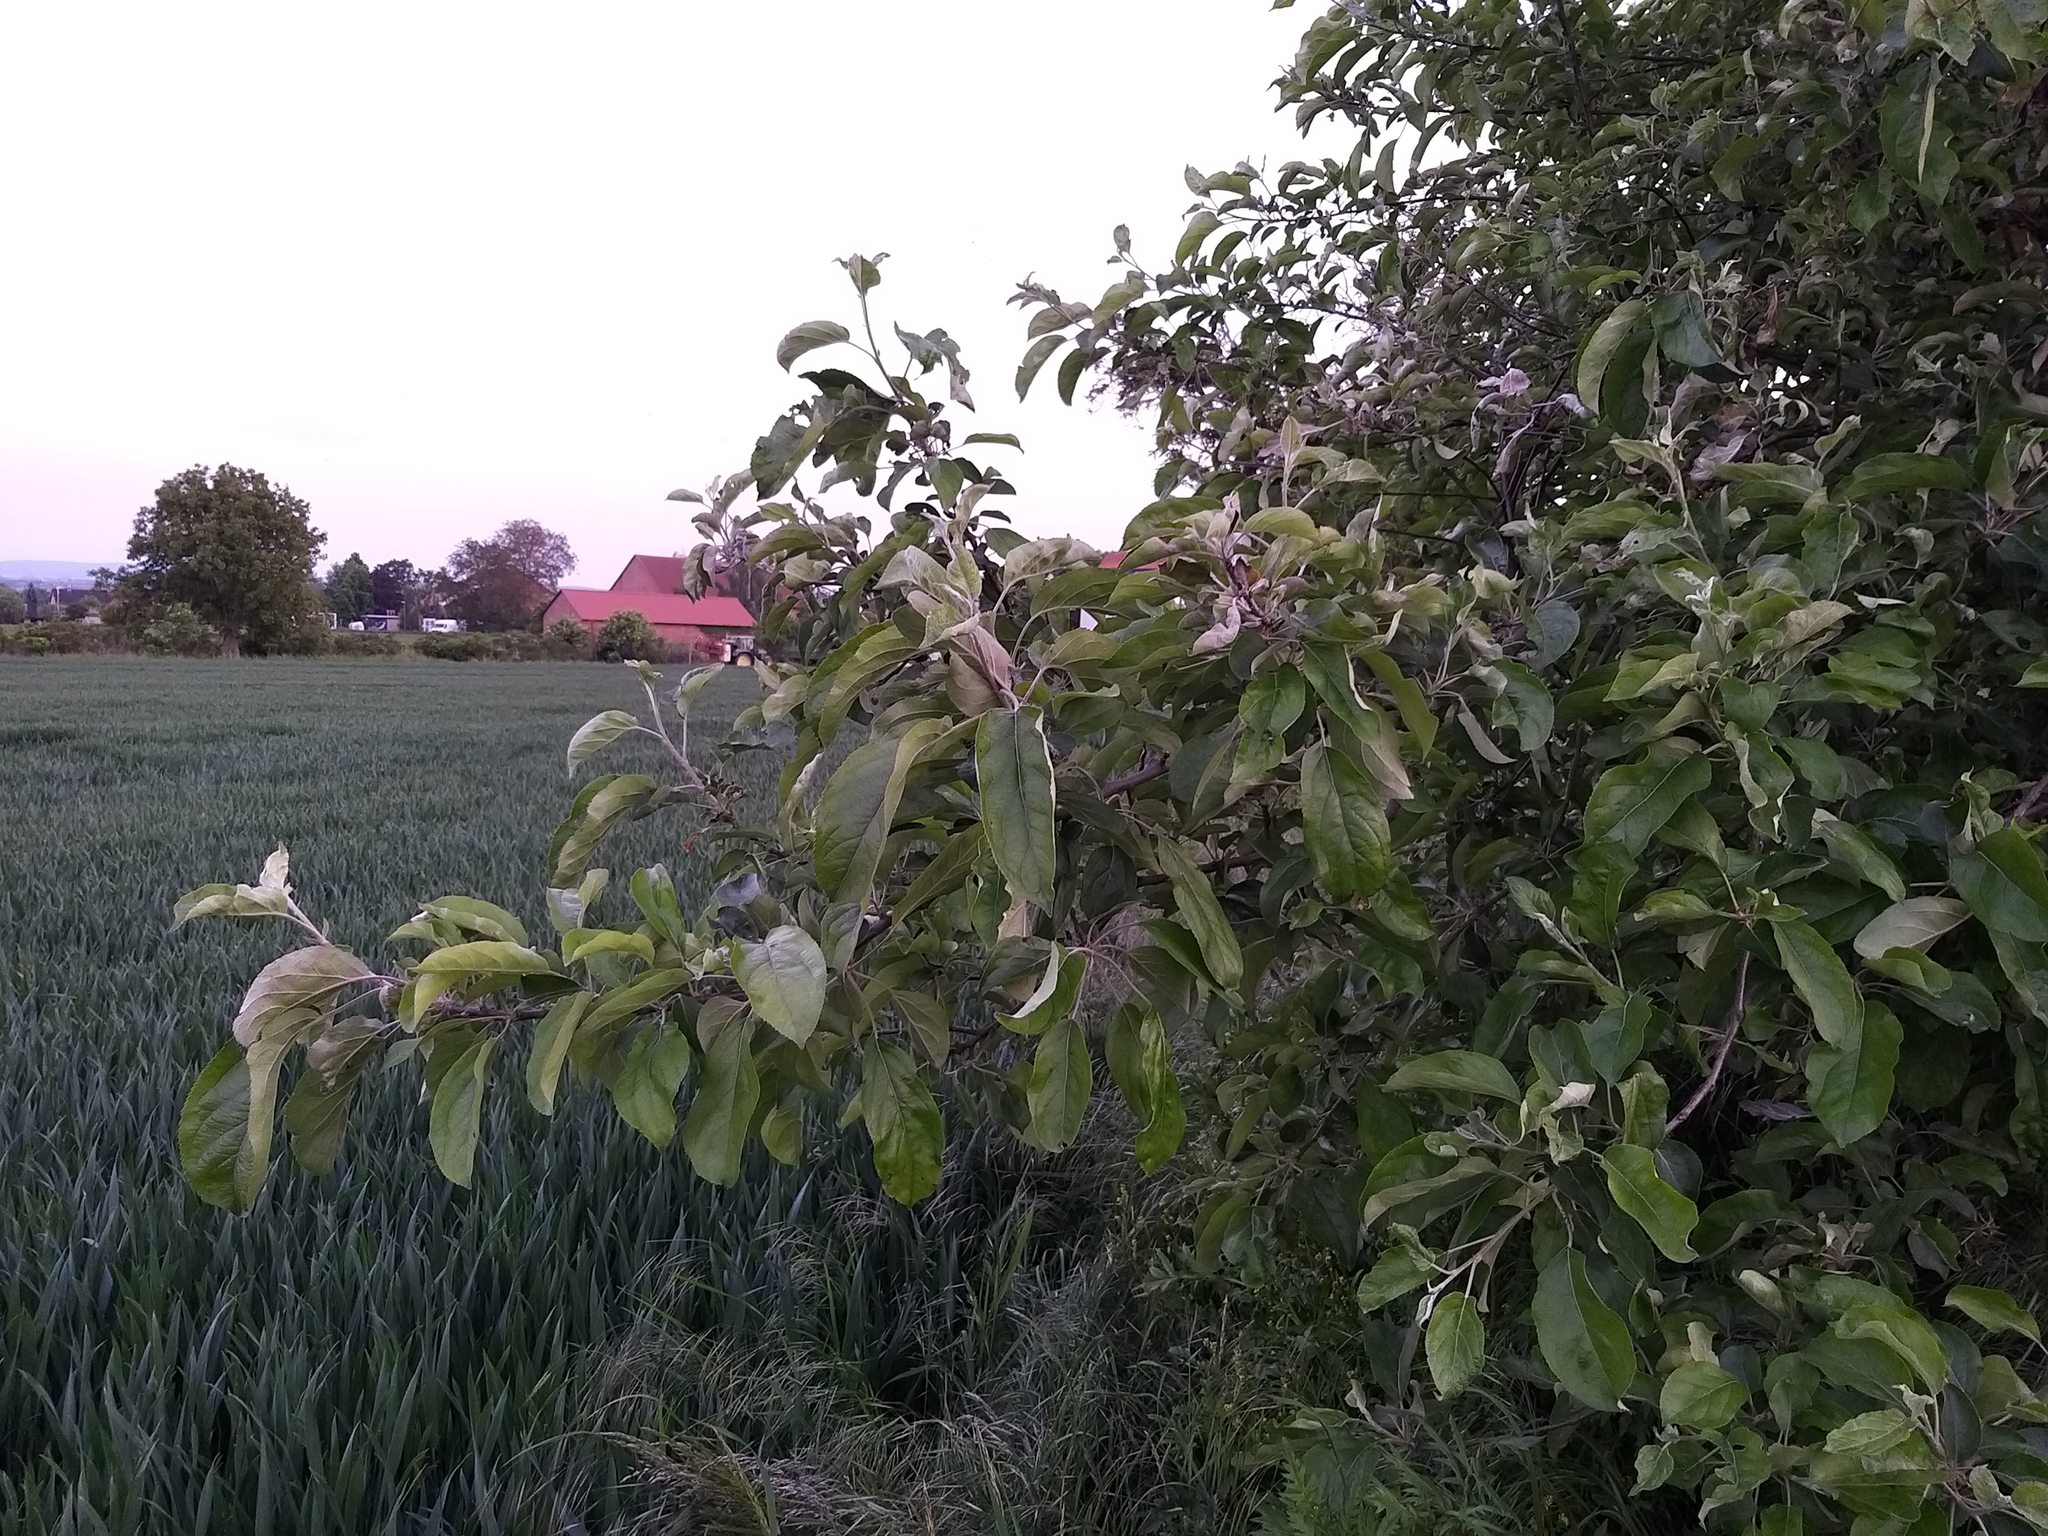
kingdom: Plantae
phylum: Tracheophyta
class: Magnoliopsida
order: Rosales
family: Rosaceae
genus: Malus
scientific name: Malus domestica
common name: Apple
